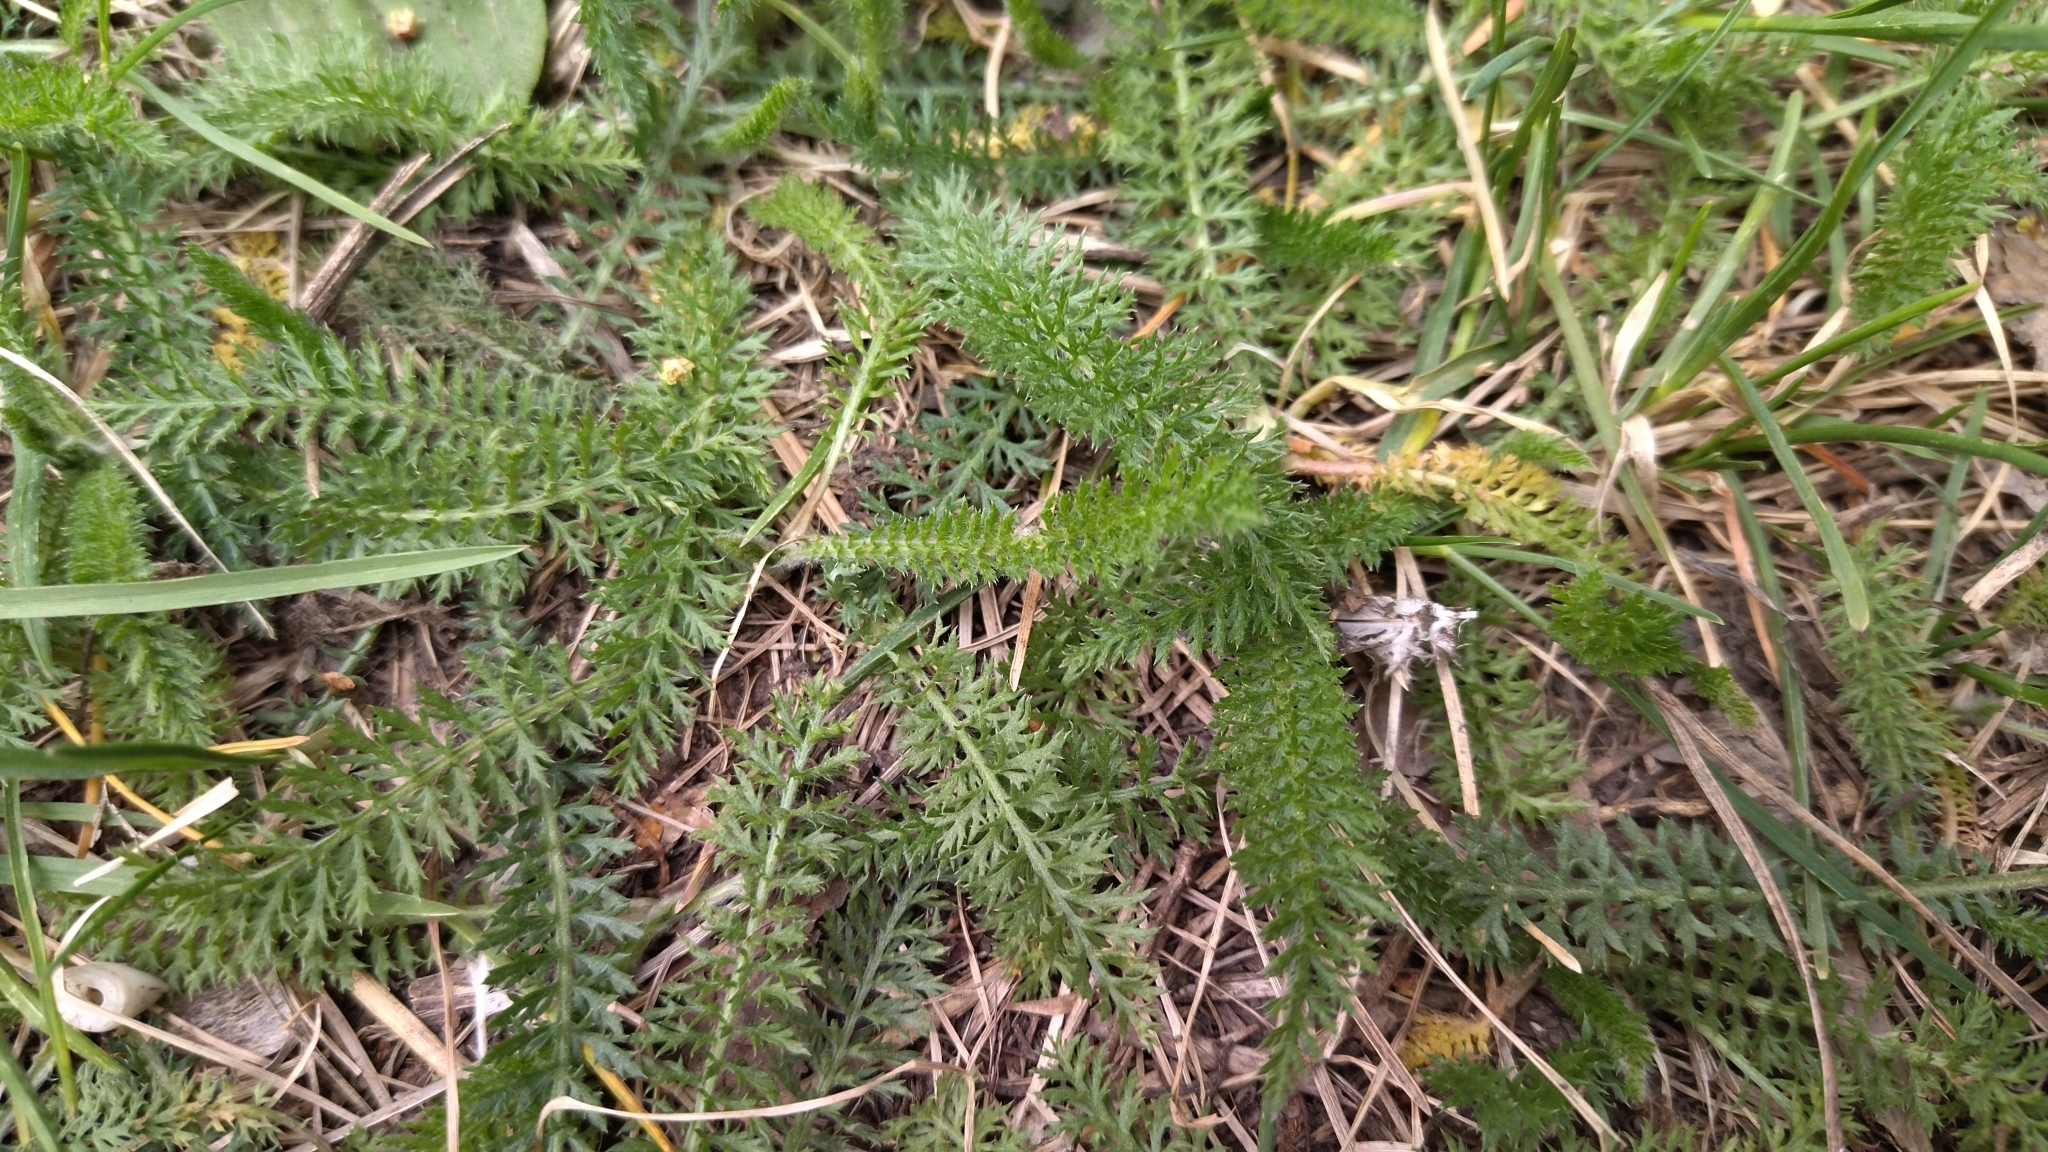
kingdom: Plantae
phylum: Tracheophyta
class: Magnoliopsida
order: Asterales
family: Asteraceae
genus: Achillea
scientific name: Achillea millefolium
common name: Yarrow
